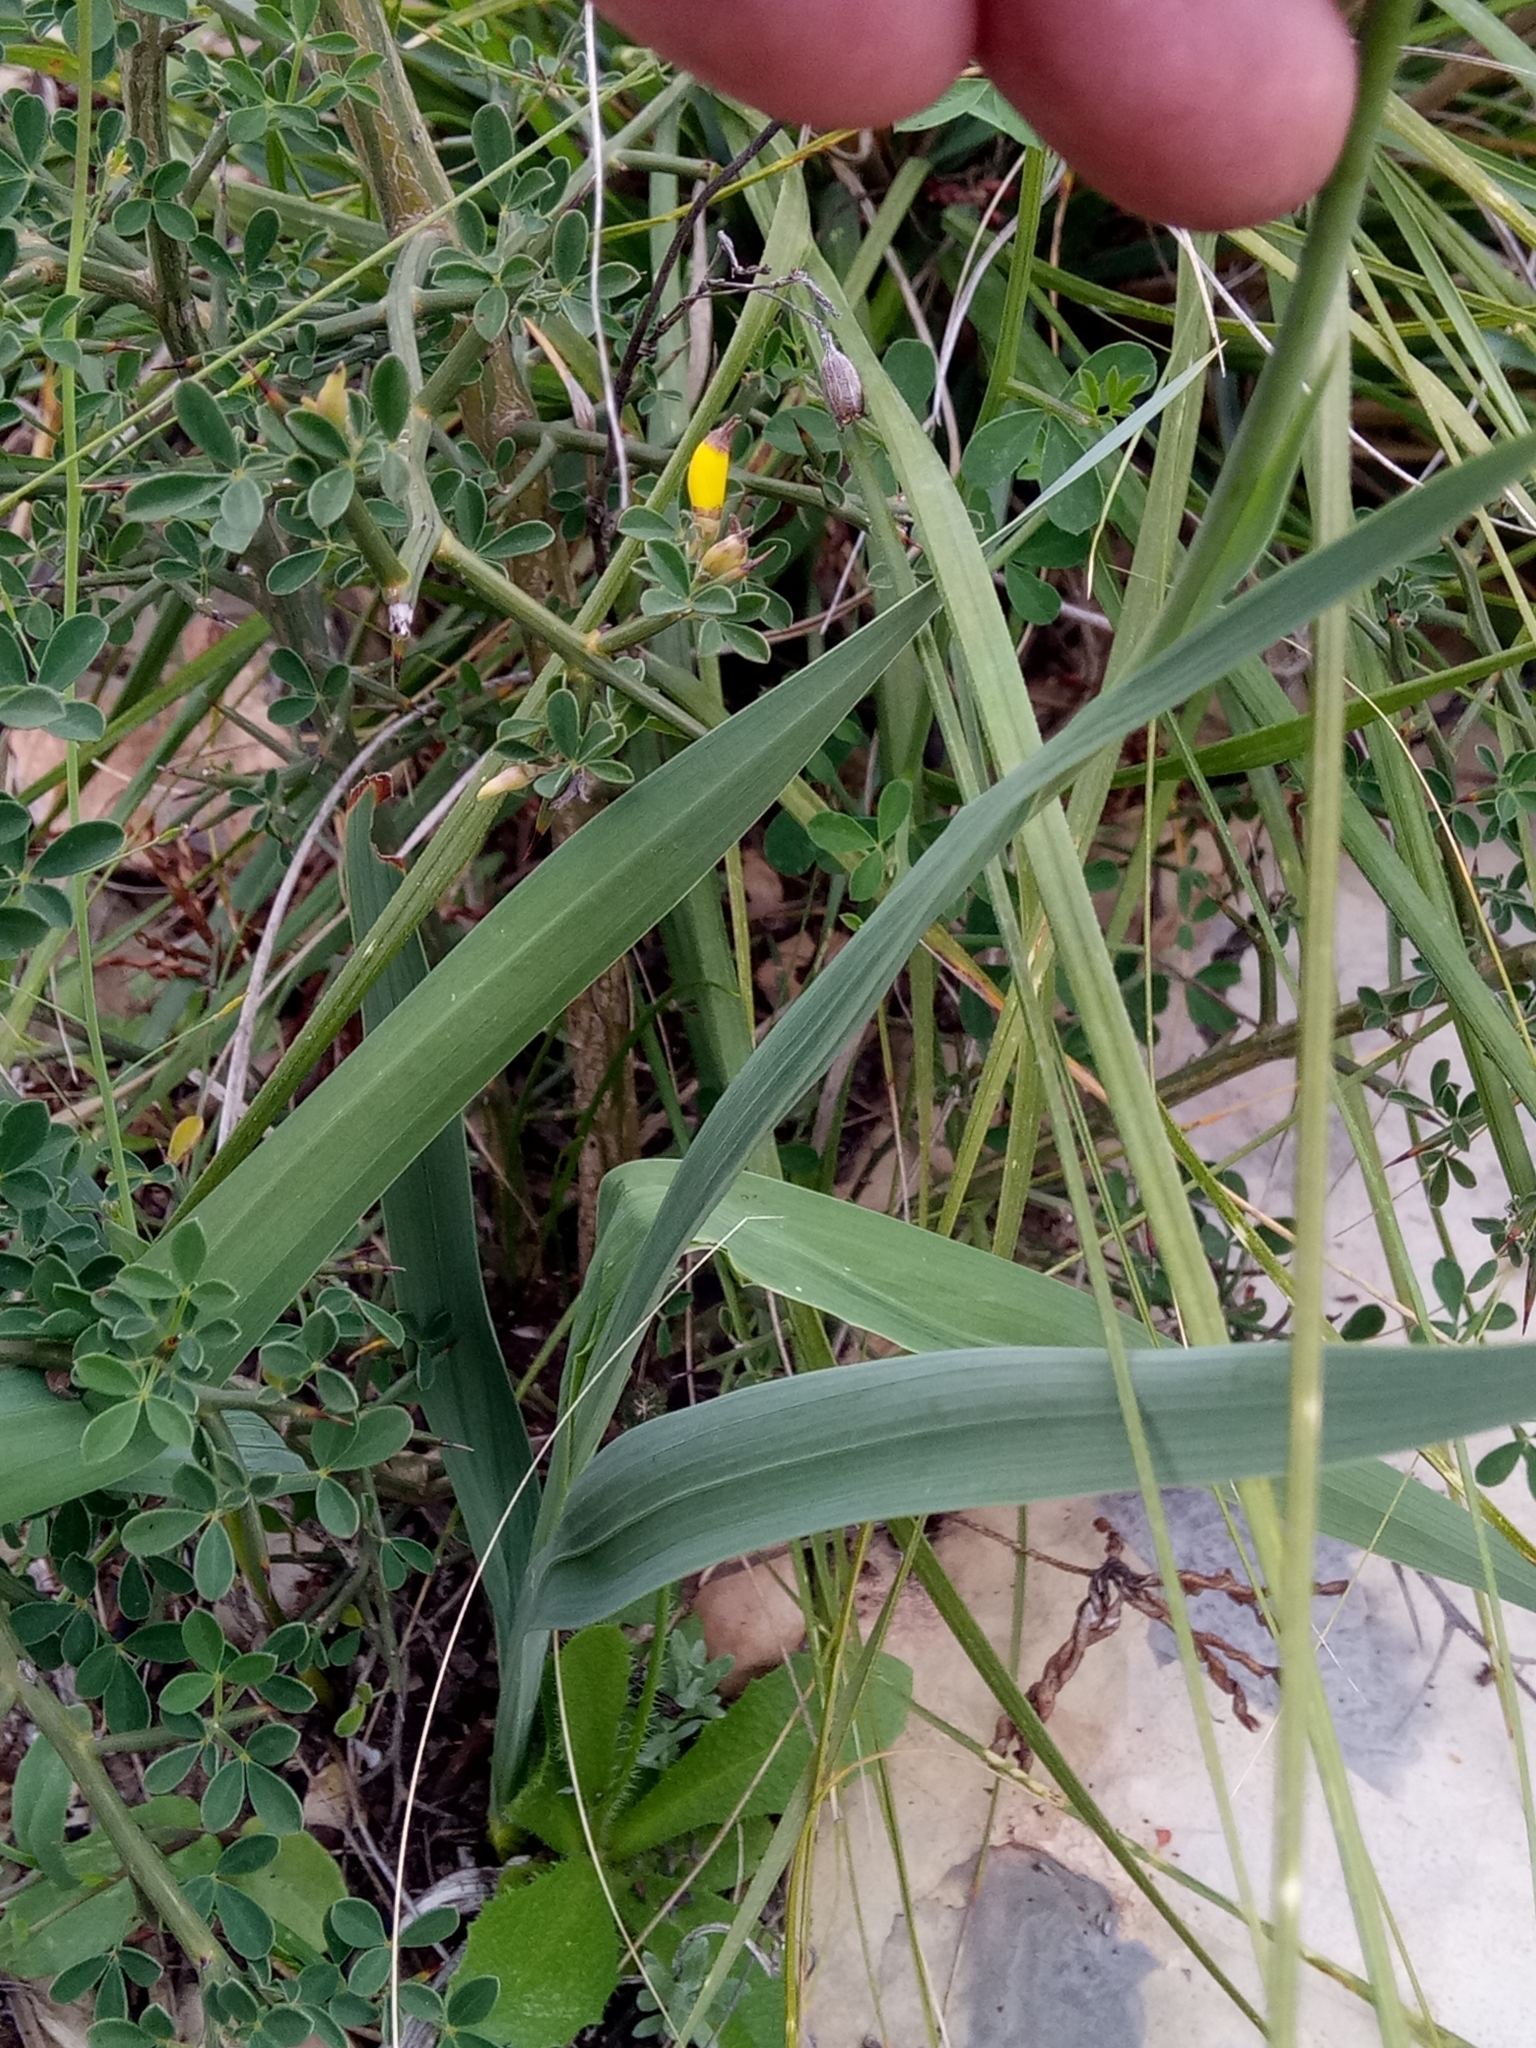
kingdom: Plantae
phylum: Tracheophyta
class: Liliopsida
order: Asparagales
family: Iridaceae
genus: Gladiolus
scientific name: Gladiolus dubius
